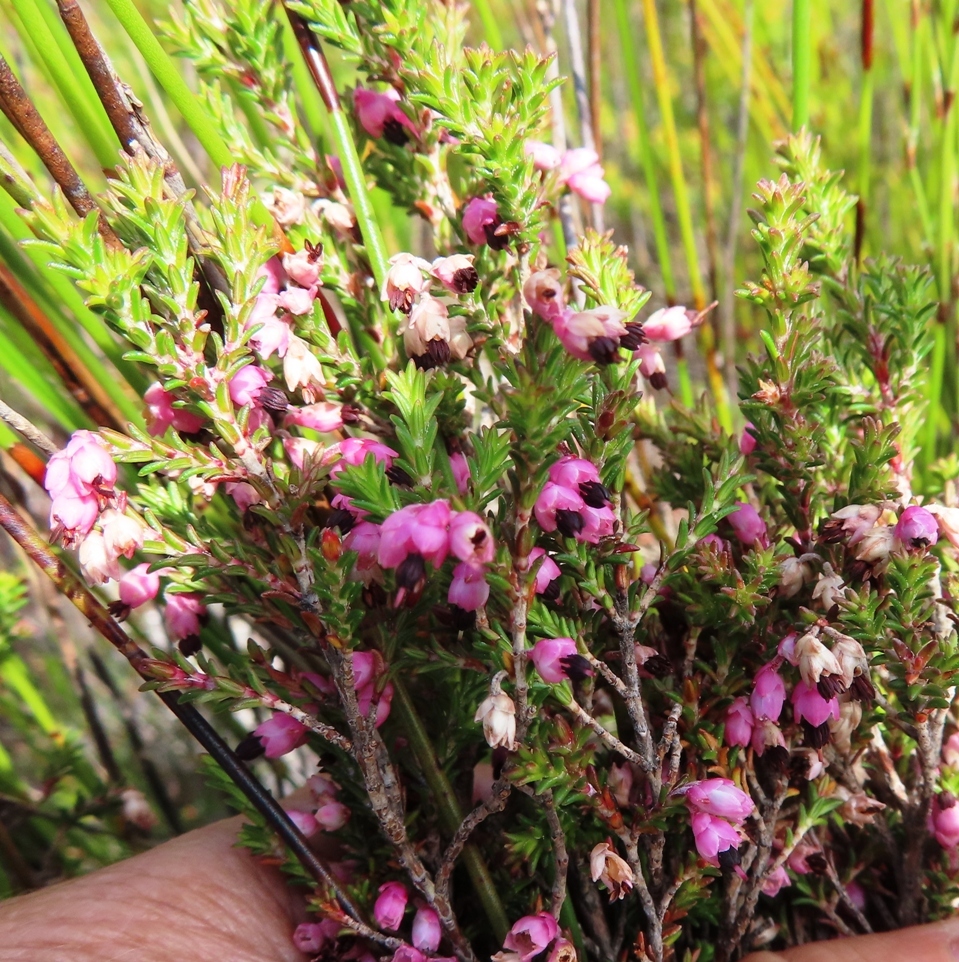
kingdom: Plantae
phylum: Tracheophyta
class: Magnoliopsida
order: Ericales
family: Ericaceae
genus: Erica
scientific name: Erica placentiflora
